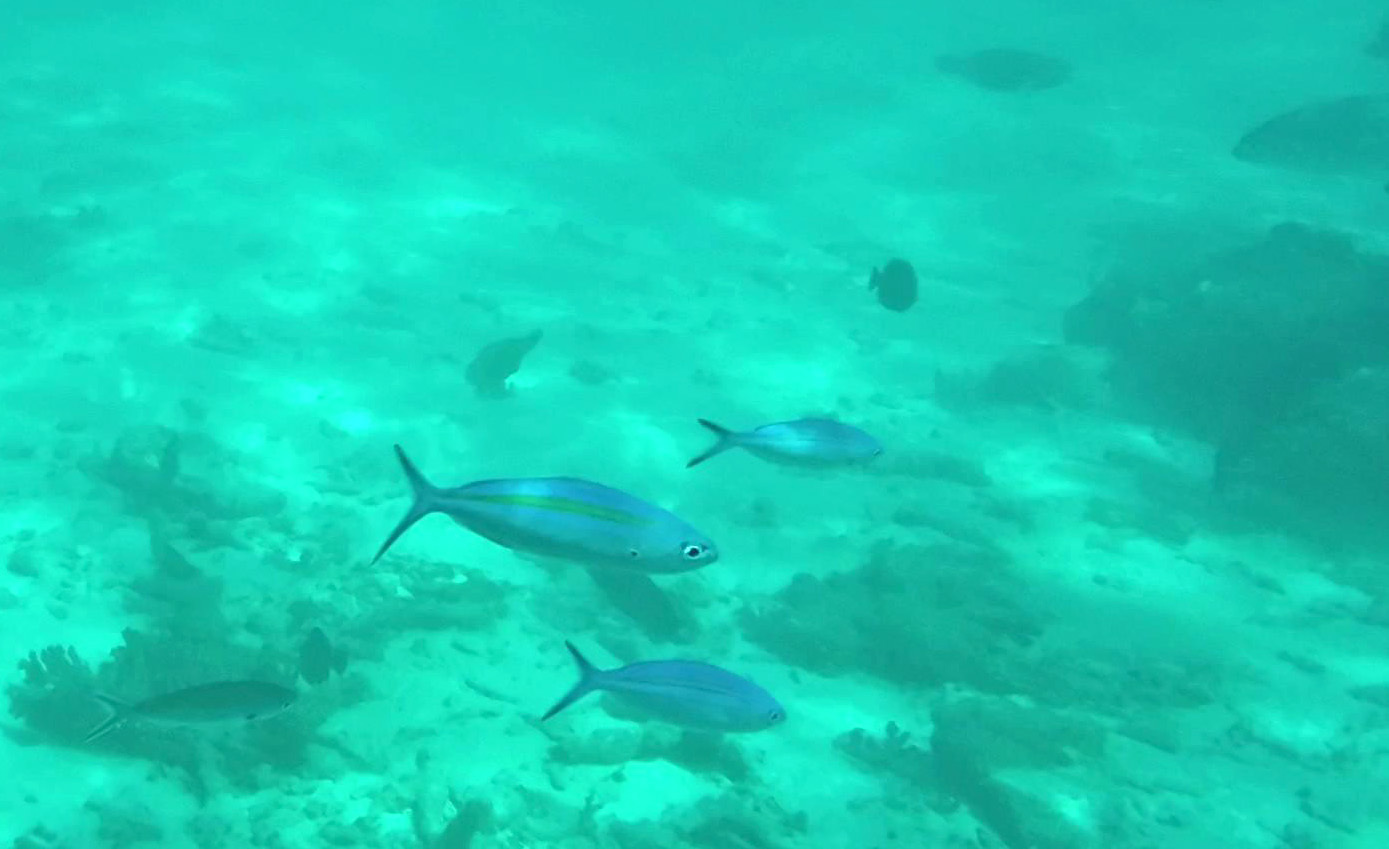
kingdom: Animalia
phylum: Chordata
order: Perciformes
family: Caesionidae
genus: Caesio
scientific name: Caesio caerulaurea
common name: Blue and gold fusilier
